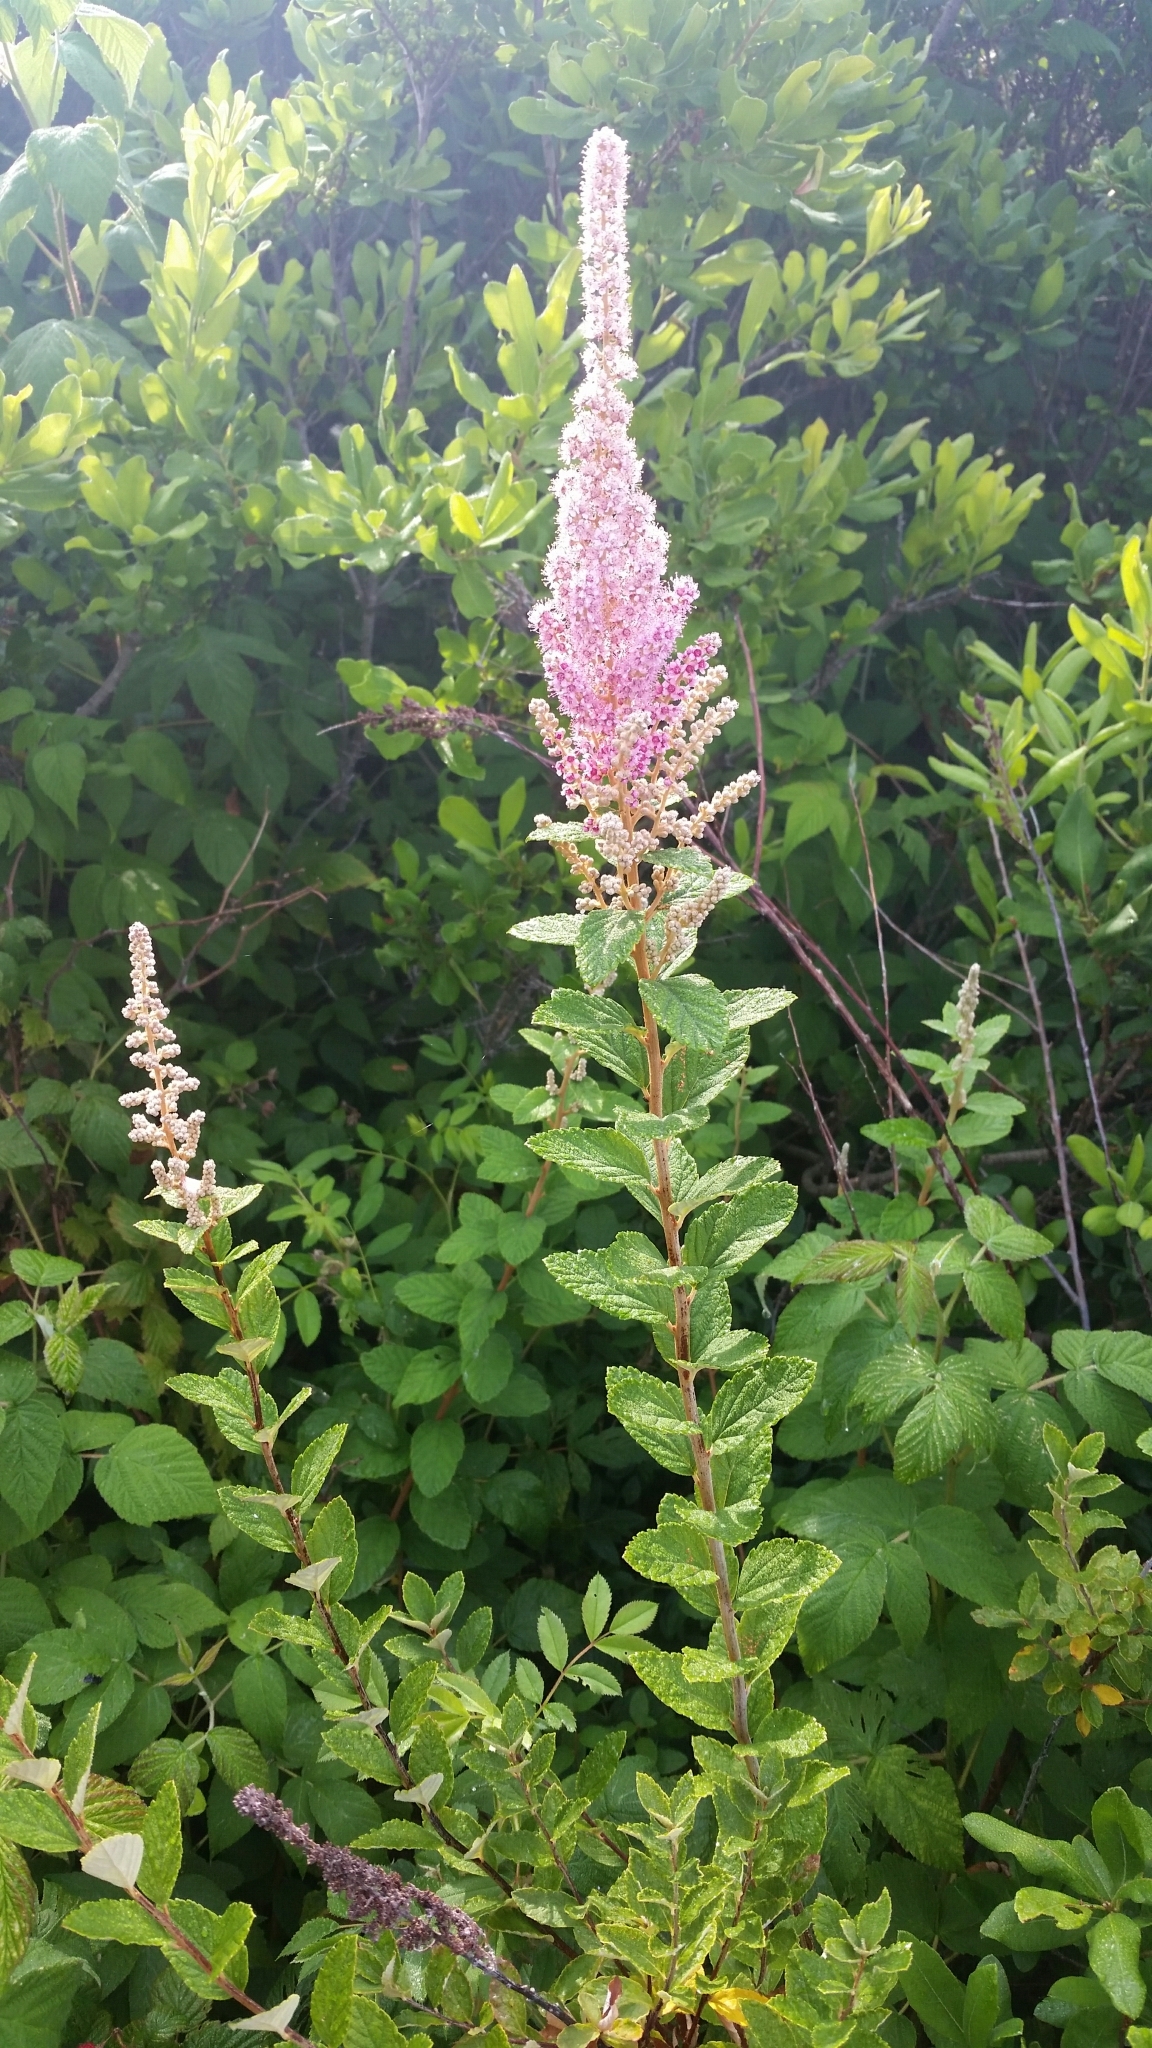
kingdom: Plantae
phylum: Tracheophyta
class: Magnoliopsida
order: Rosales
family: Rosaceae
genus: Spiraea
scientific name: Spiraea tomentosa
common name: Hardhack
